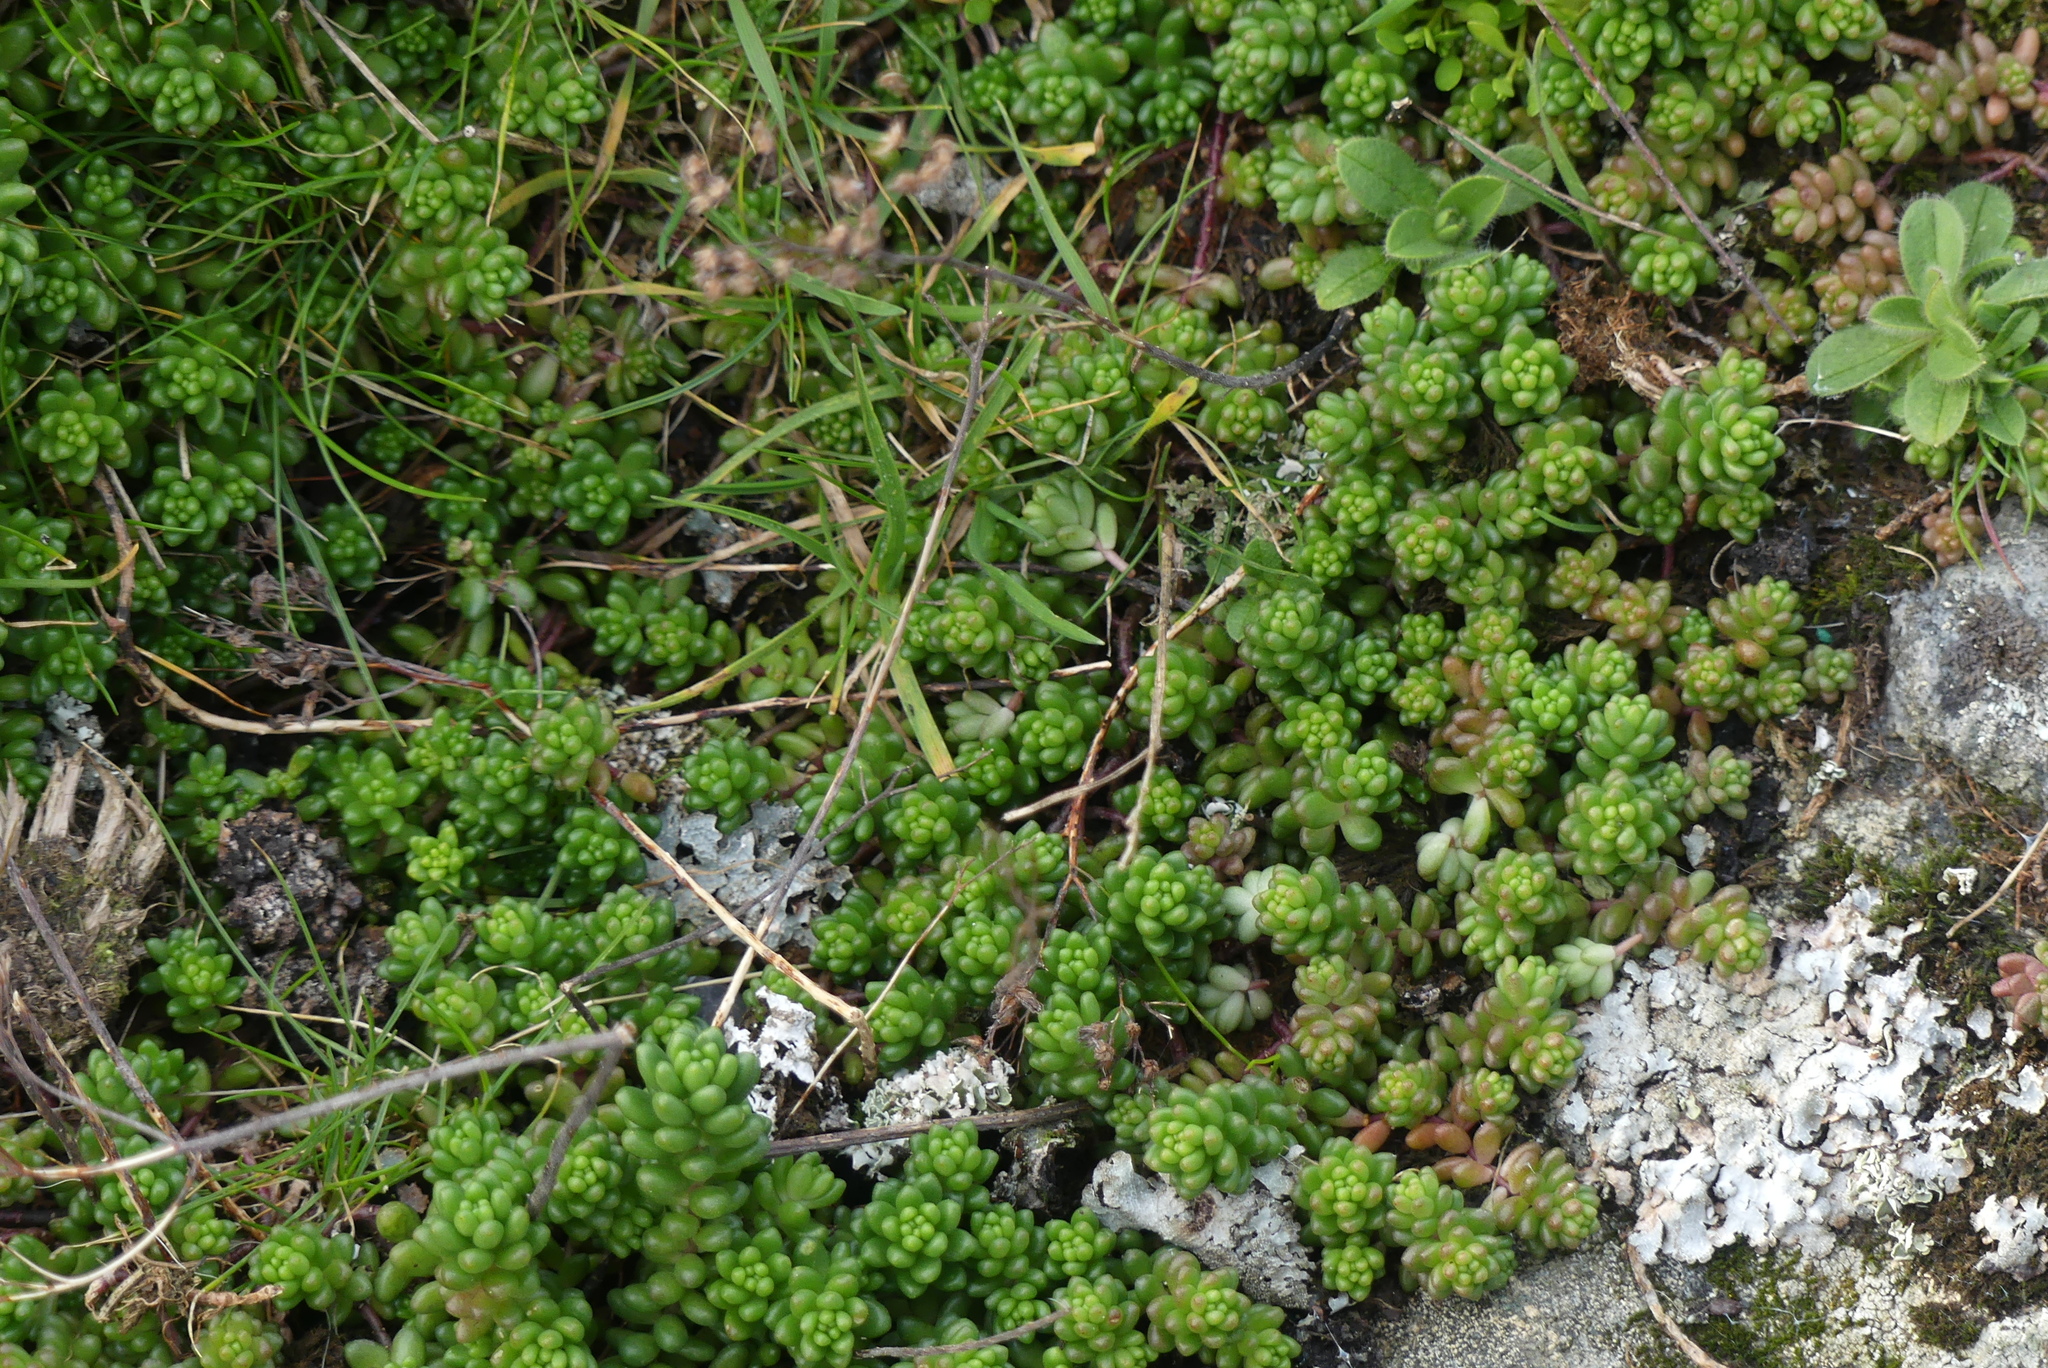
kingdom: Plantae
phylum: Tracheophyta
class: Magnoliopsida
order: Saxifragales
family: Crassulaceae
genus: Sedum
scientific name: Sedum album
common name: White stonecrop
